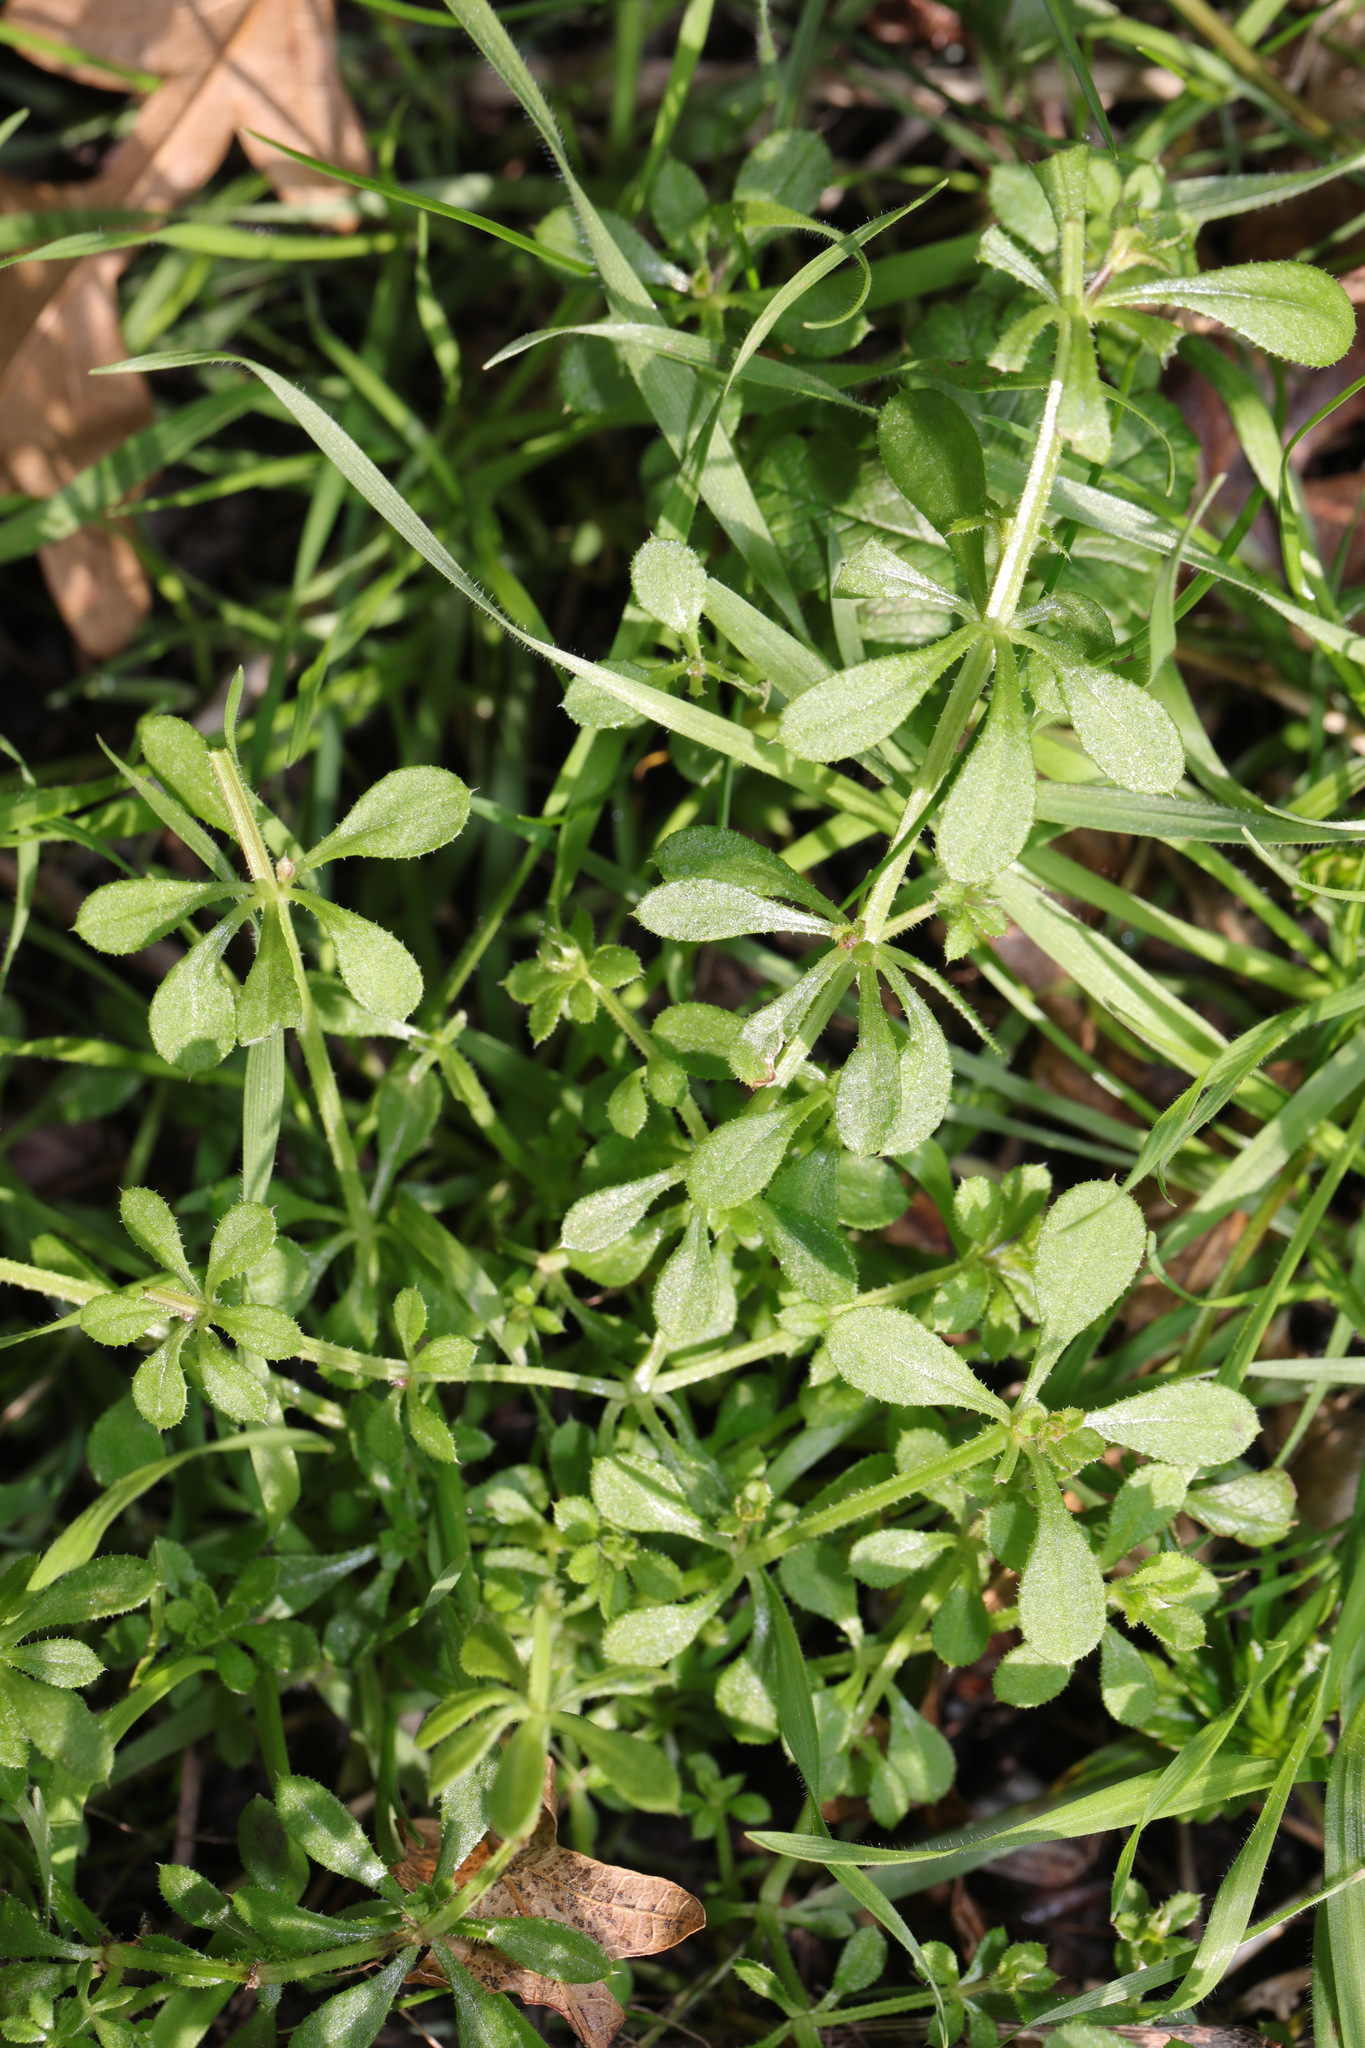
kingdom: Plantae
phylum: Tracheophyta
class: Magnoliopsida
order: Gentianales
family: Rubiaceae
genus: Galium
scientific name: Galium aparine
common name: Cleavers
